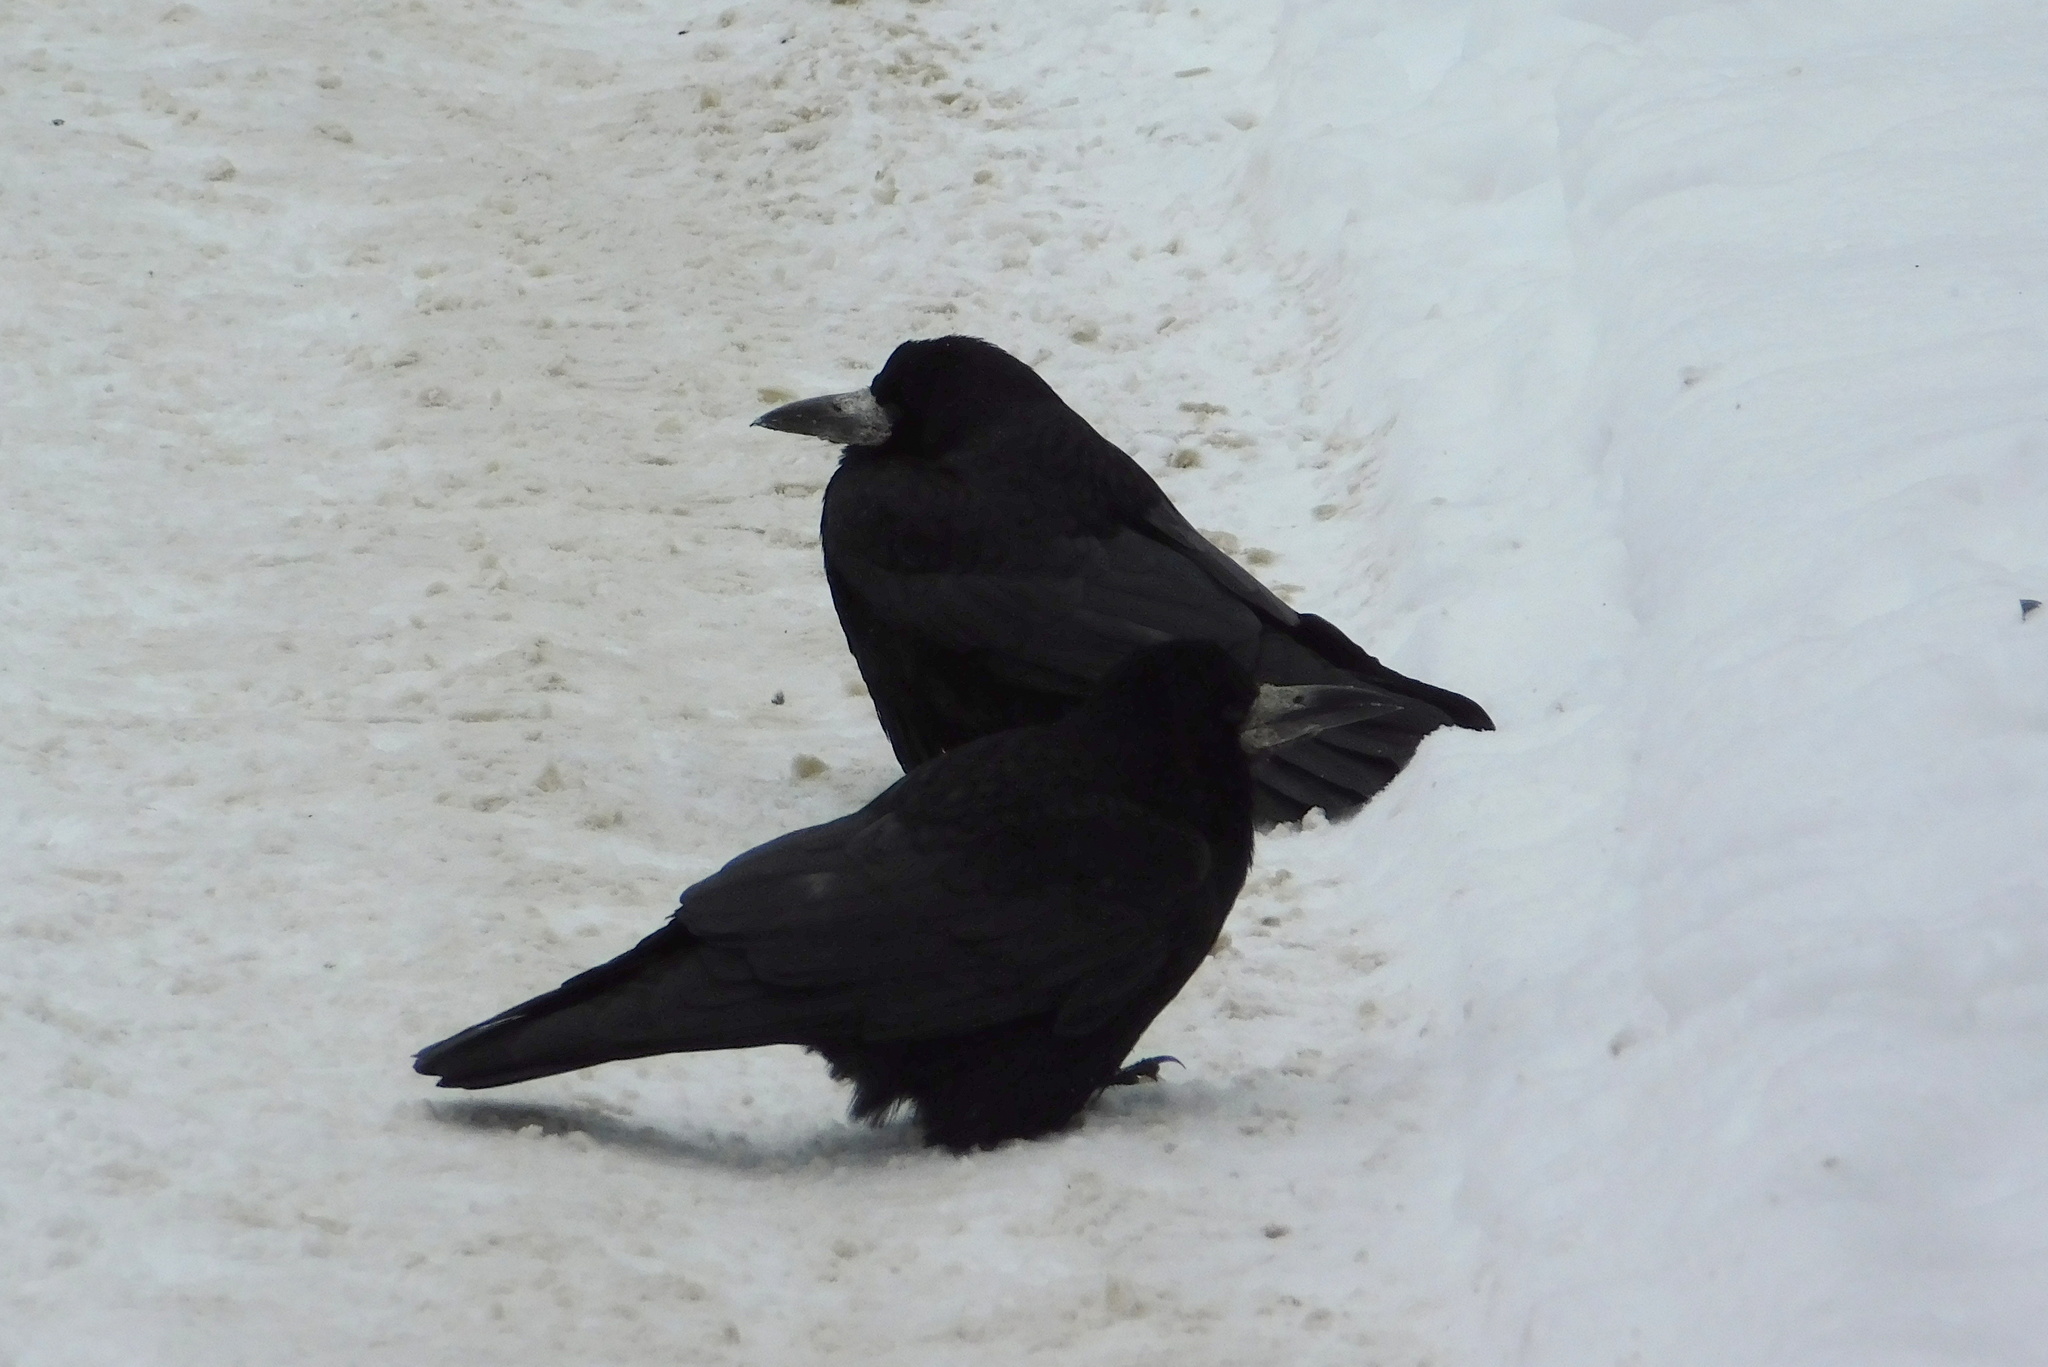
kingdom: Animalia
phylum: Chordata
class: Aves
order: Passeriformes
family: Corvidae
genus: Corvus
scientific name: Corvus frugilegus
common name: Rook
